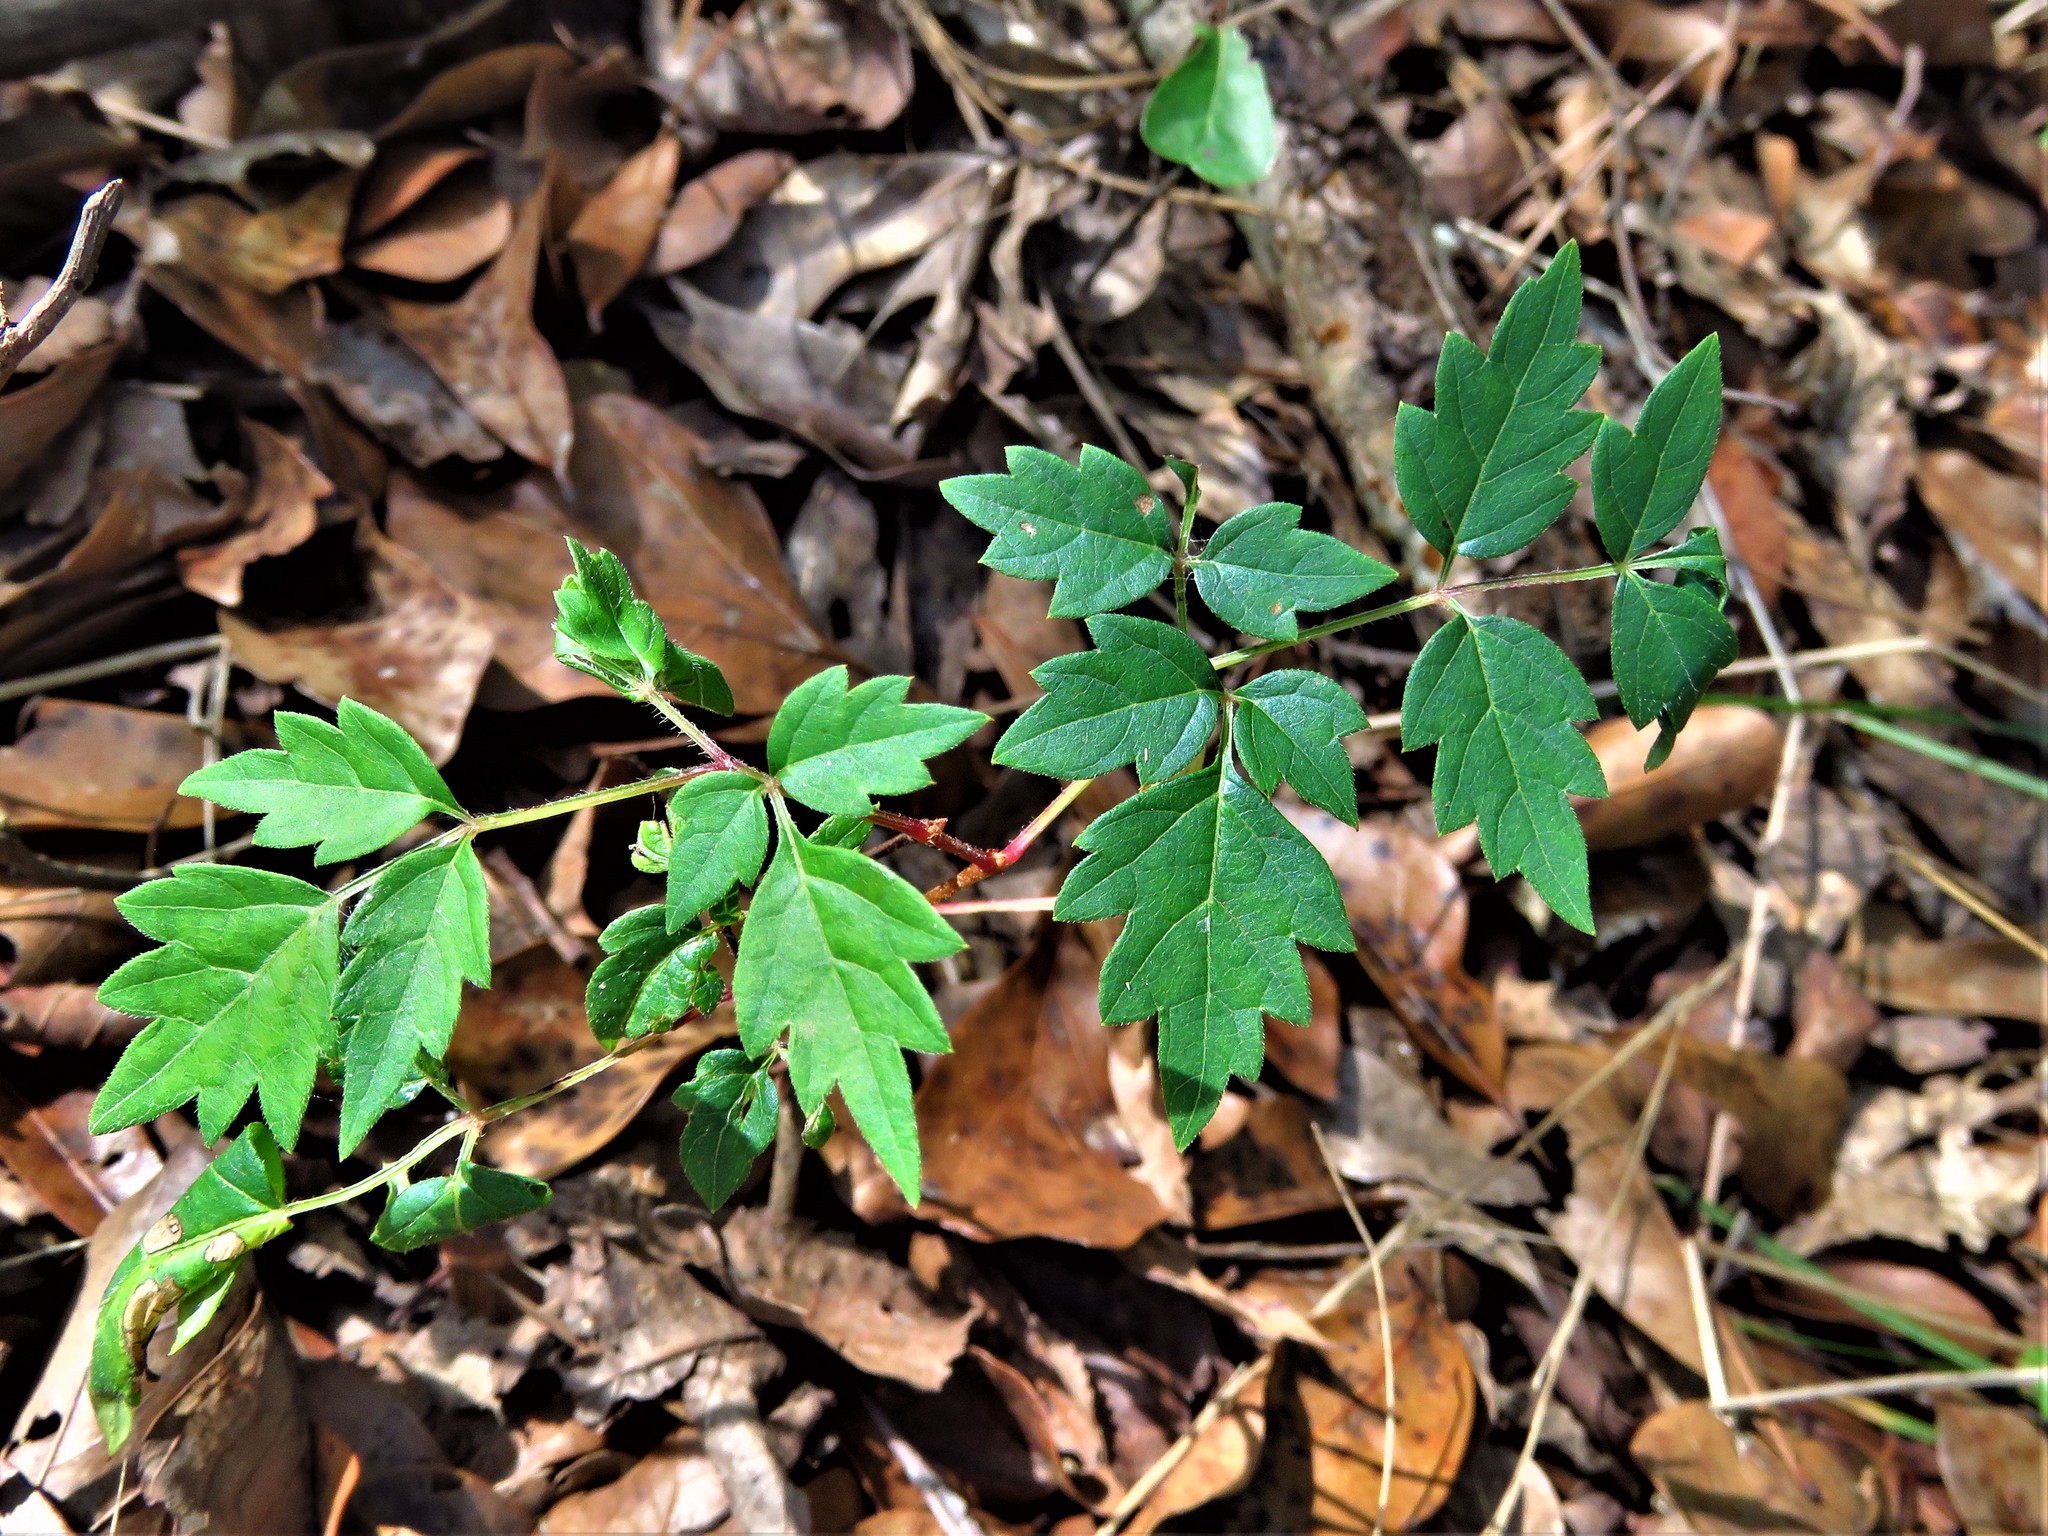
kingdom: Plantae
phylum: Tracheophyta
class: Magnoliopsida
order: Vitales
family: Vitaceae
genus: Nekemias
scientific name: Nekemias arborea
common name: Peppervine
